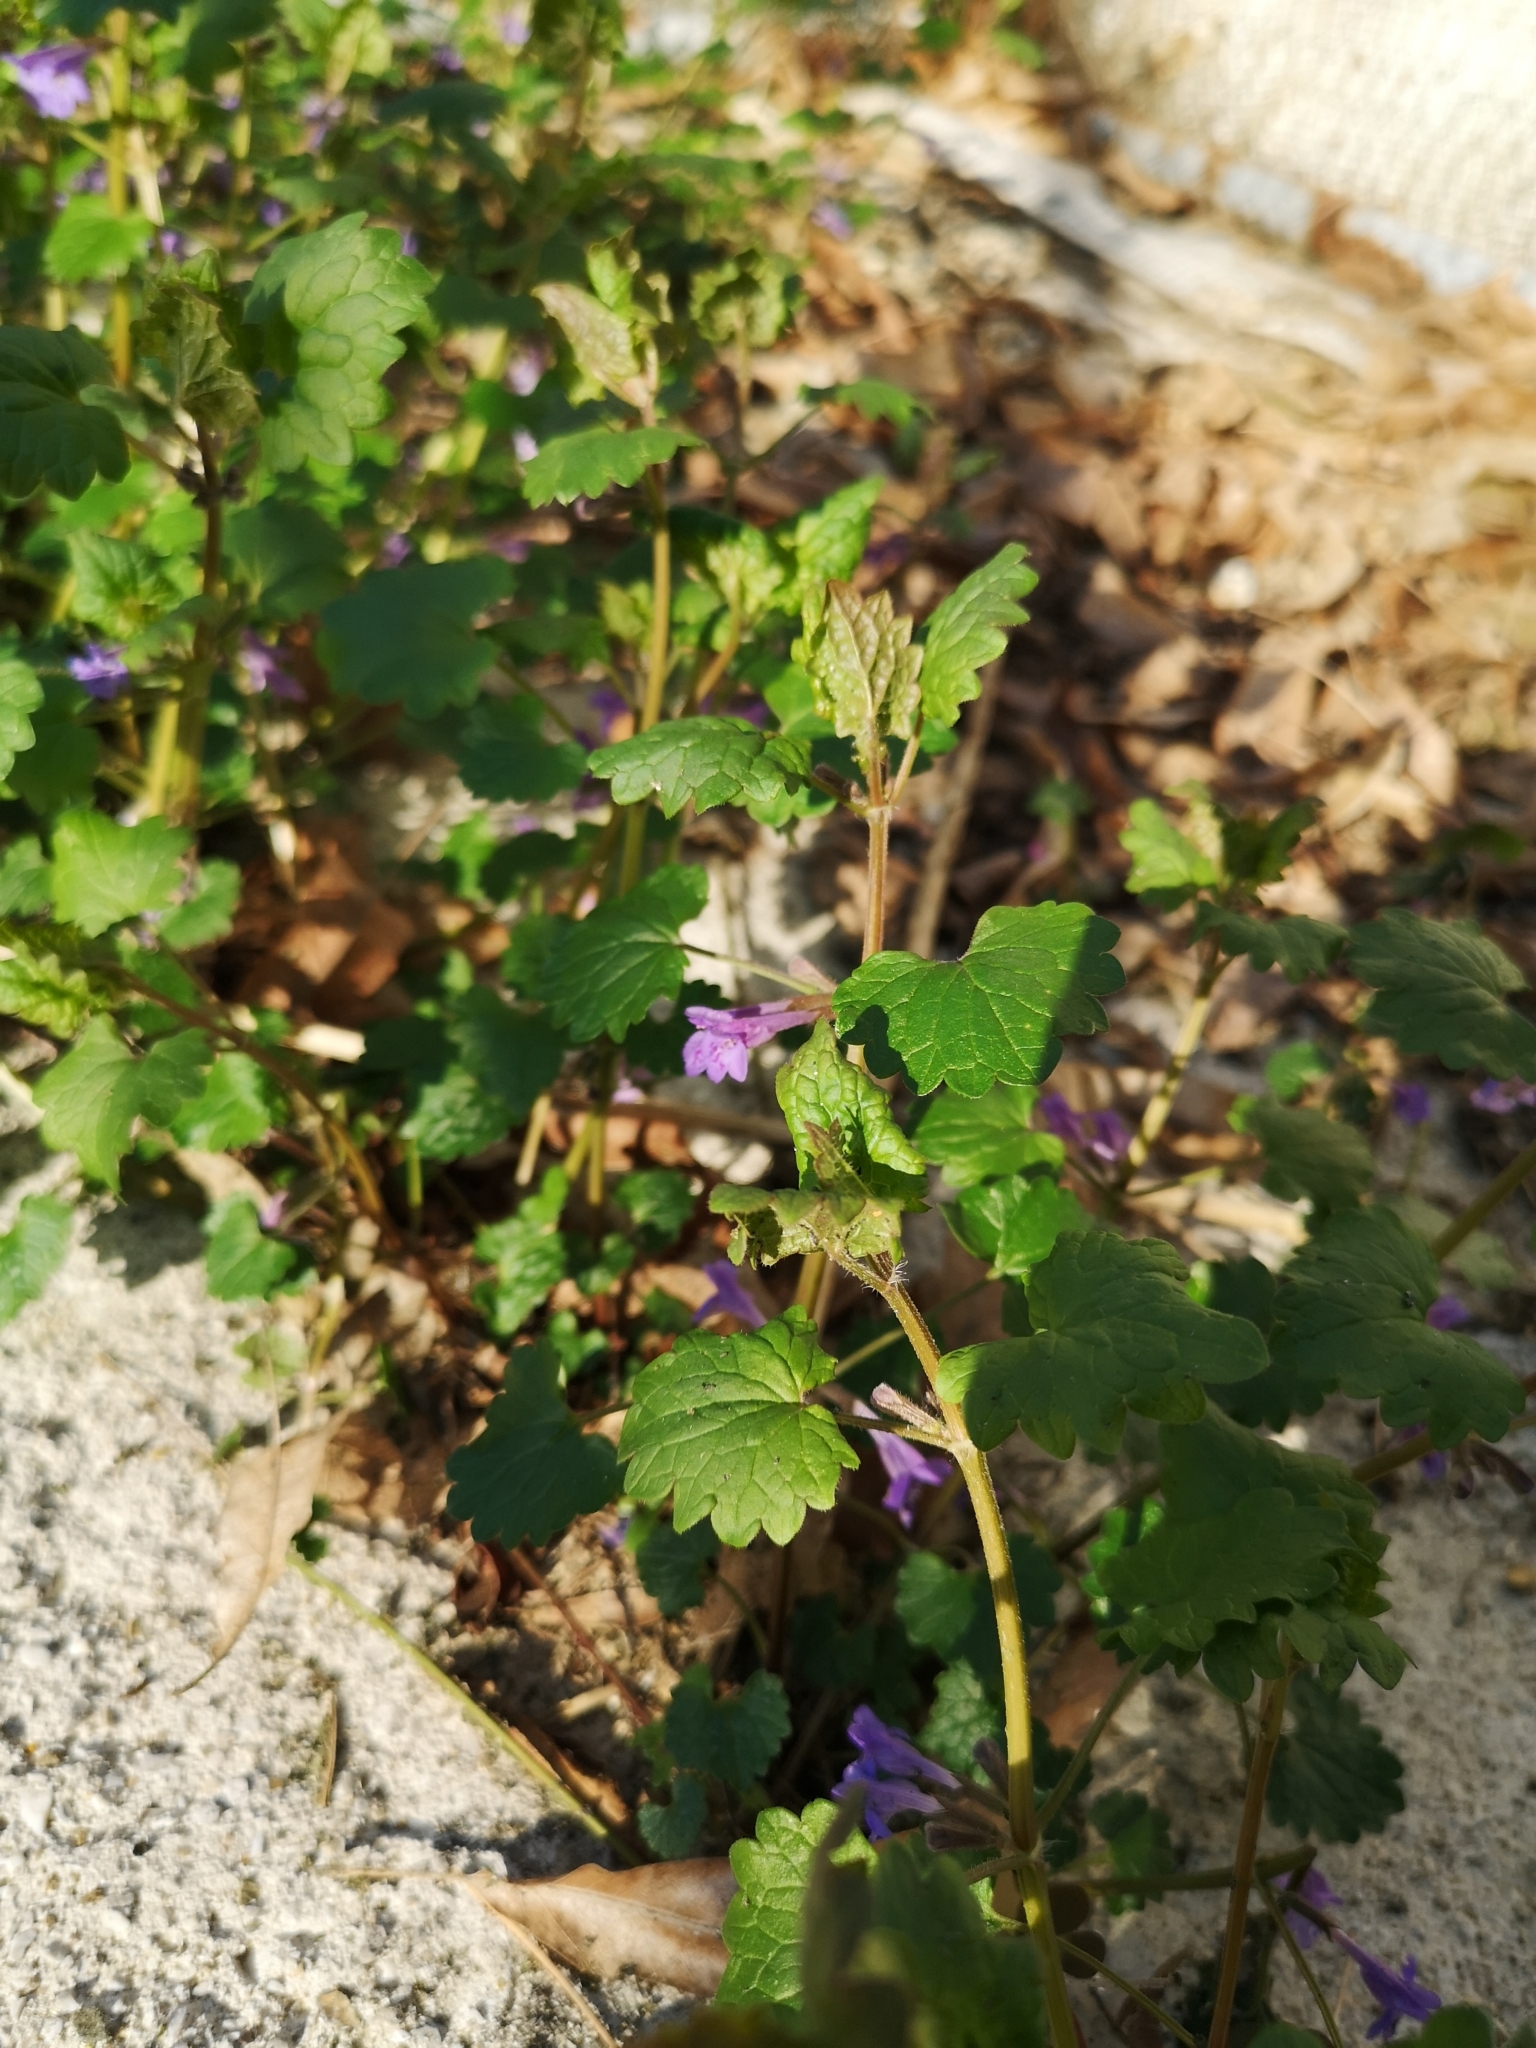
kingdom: Plantae
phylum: Tracheophyta
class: Magnoliopsida
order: Lamiales
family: Lamiaceae
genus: Glechoma
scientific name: Glechoma hederacea
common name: Ground ivy
